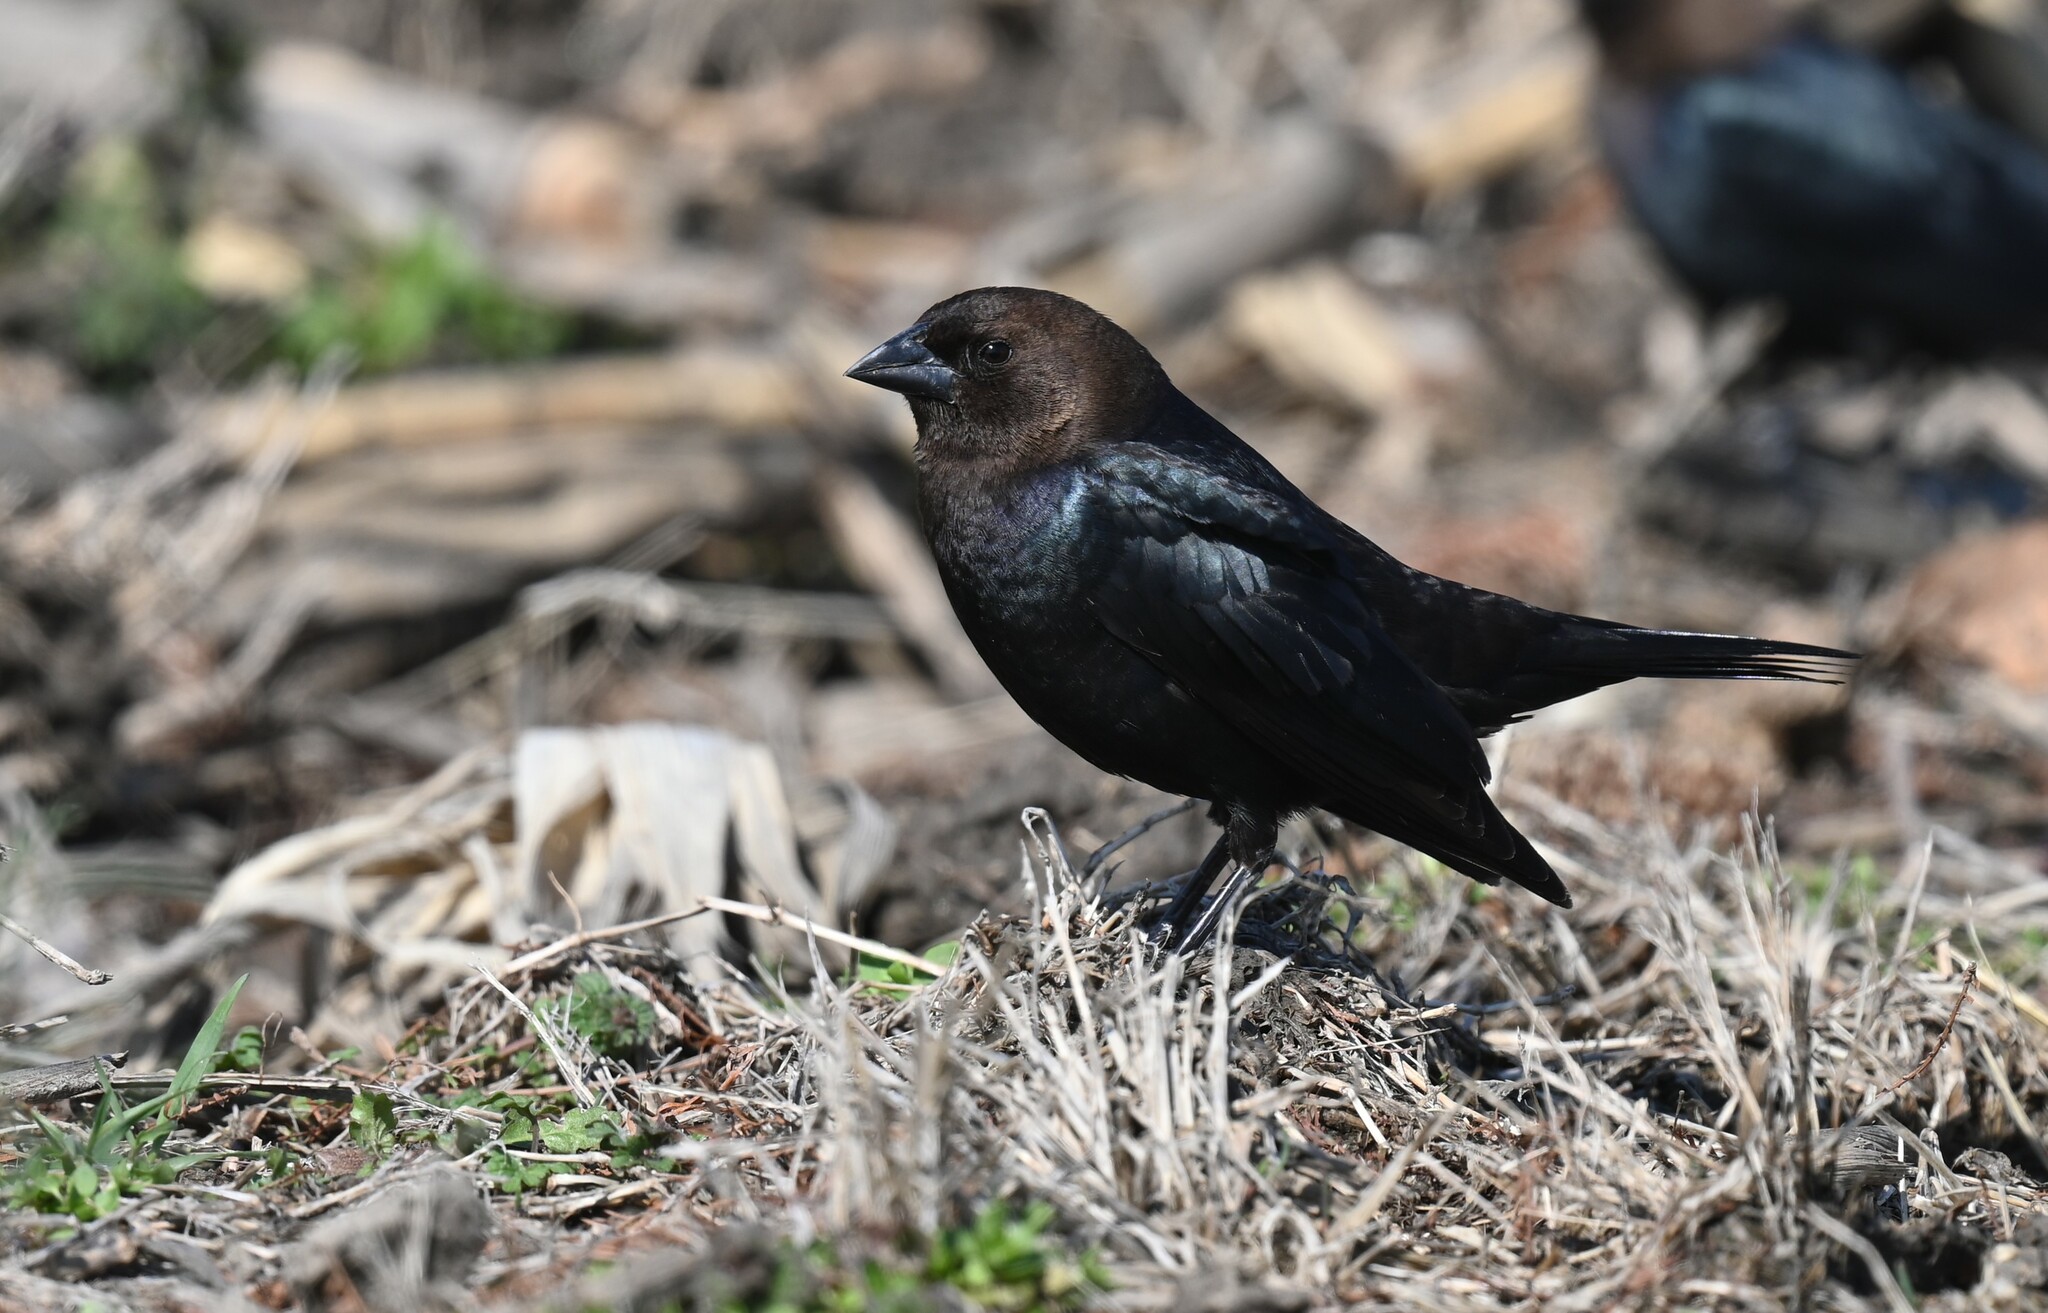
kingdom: Animalia
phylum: Chordata
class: Aves
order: Passeriformes
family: Icteridae
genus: Molothrus
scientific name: Molothrus ater
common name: Brown-headed cowbird
